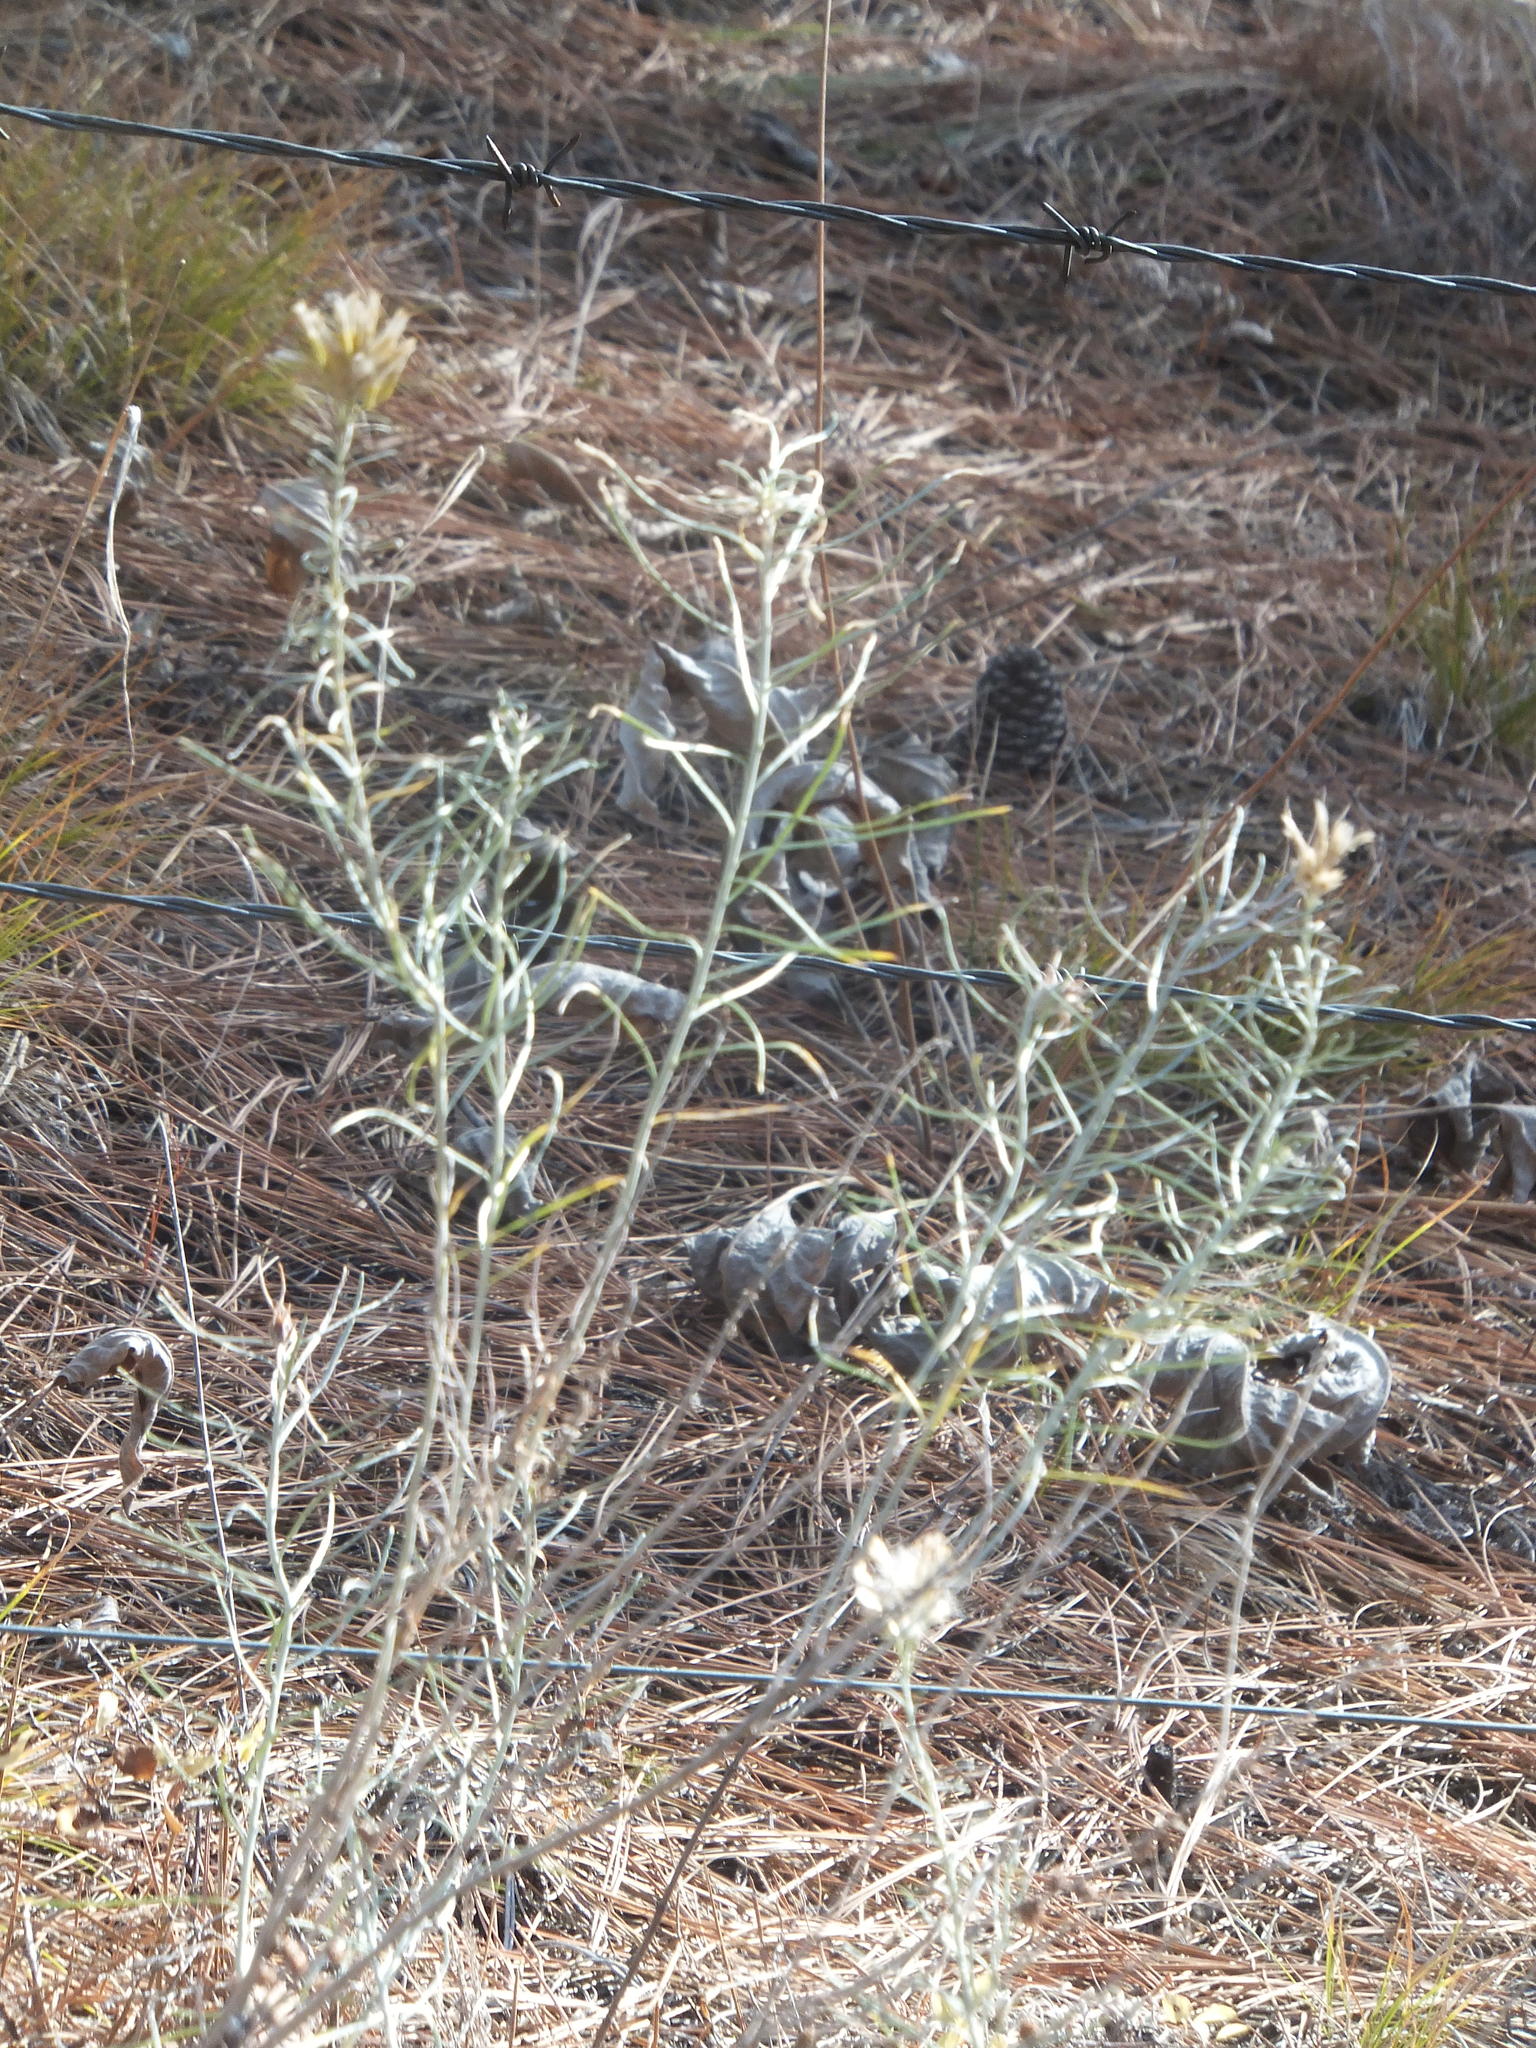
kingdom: Plantae
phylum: Tracheophyta
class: Magnoliopsida
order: Asterales
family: Asteraceae
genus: Ericameria
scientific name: Ericameria nauseosa
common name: Rubber rabbitbrush
